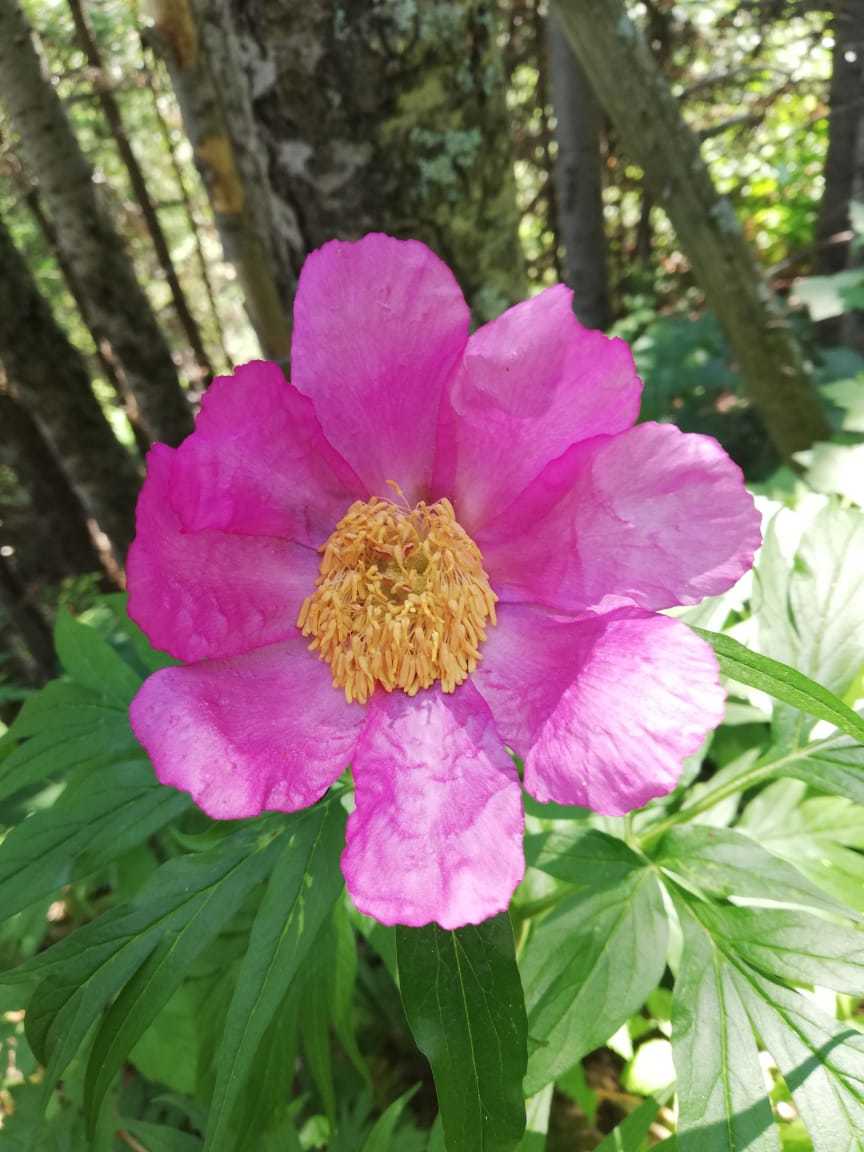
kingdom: Plantae
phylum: Tracheophyta
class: Magnoliopsida
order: Saxifragales
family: Paeoniaceae
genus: Paeonia
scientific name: Paeonia anomala
